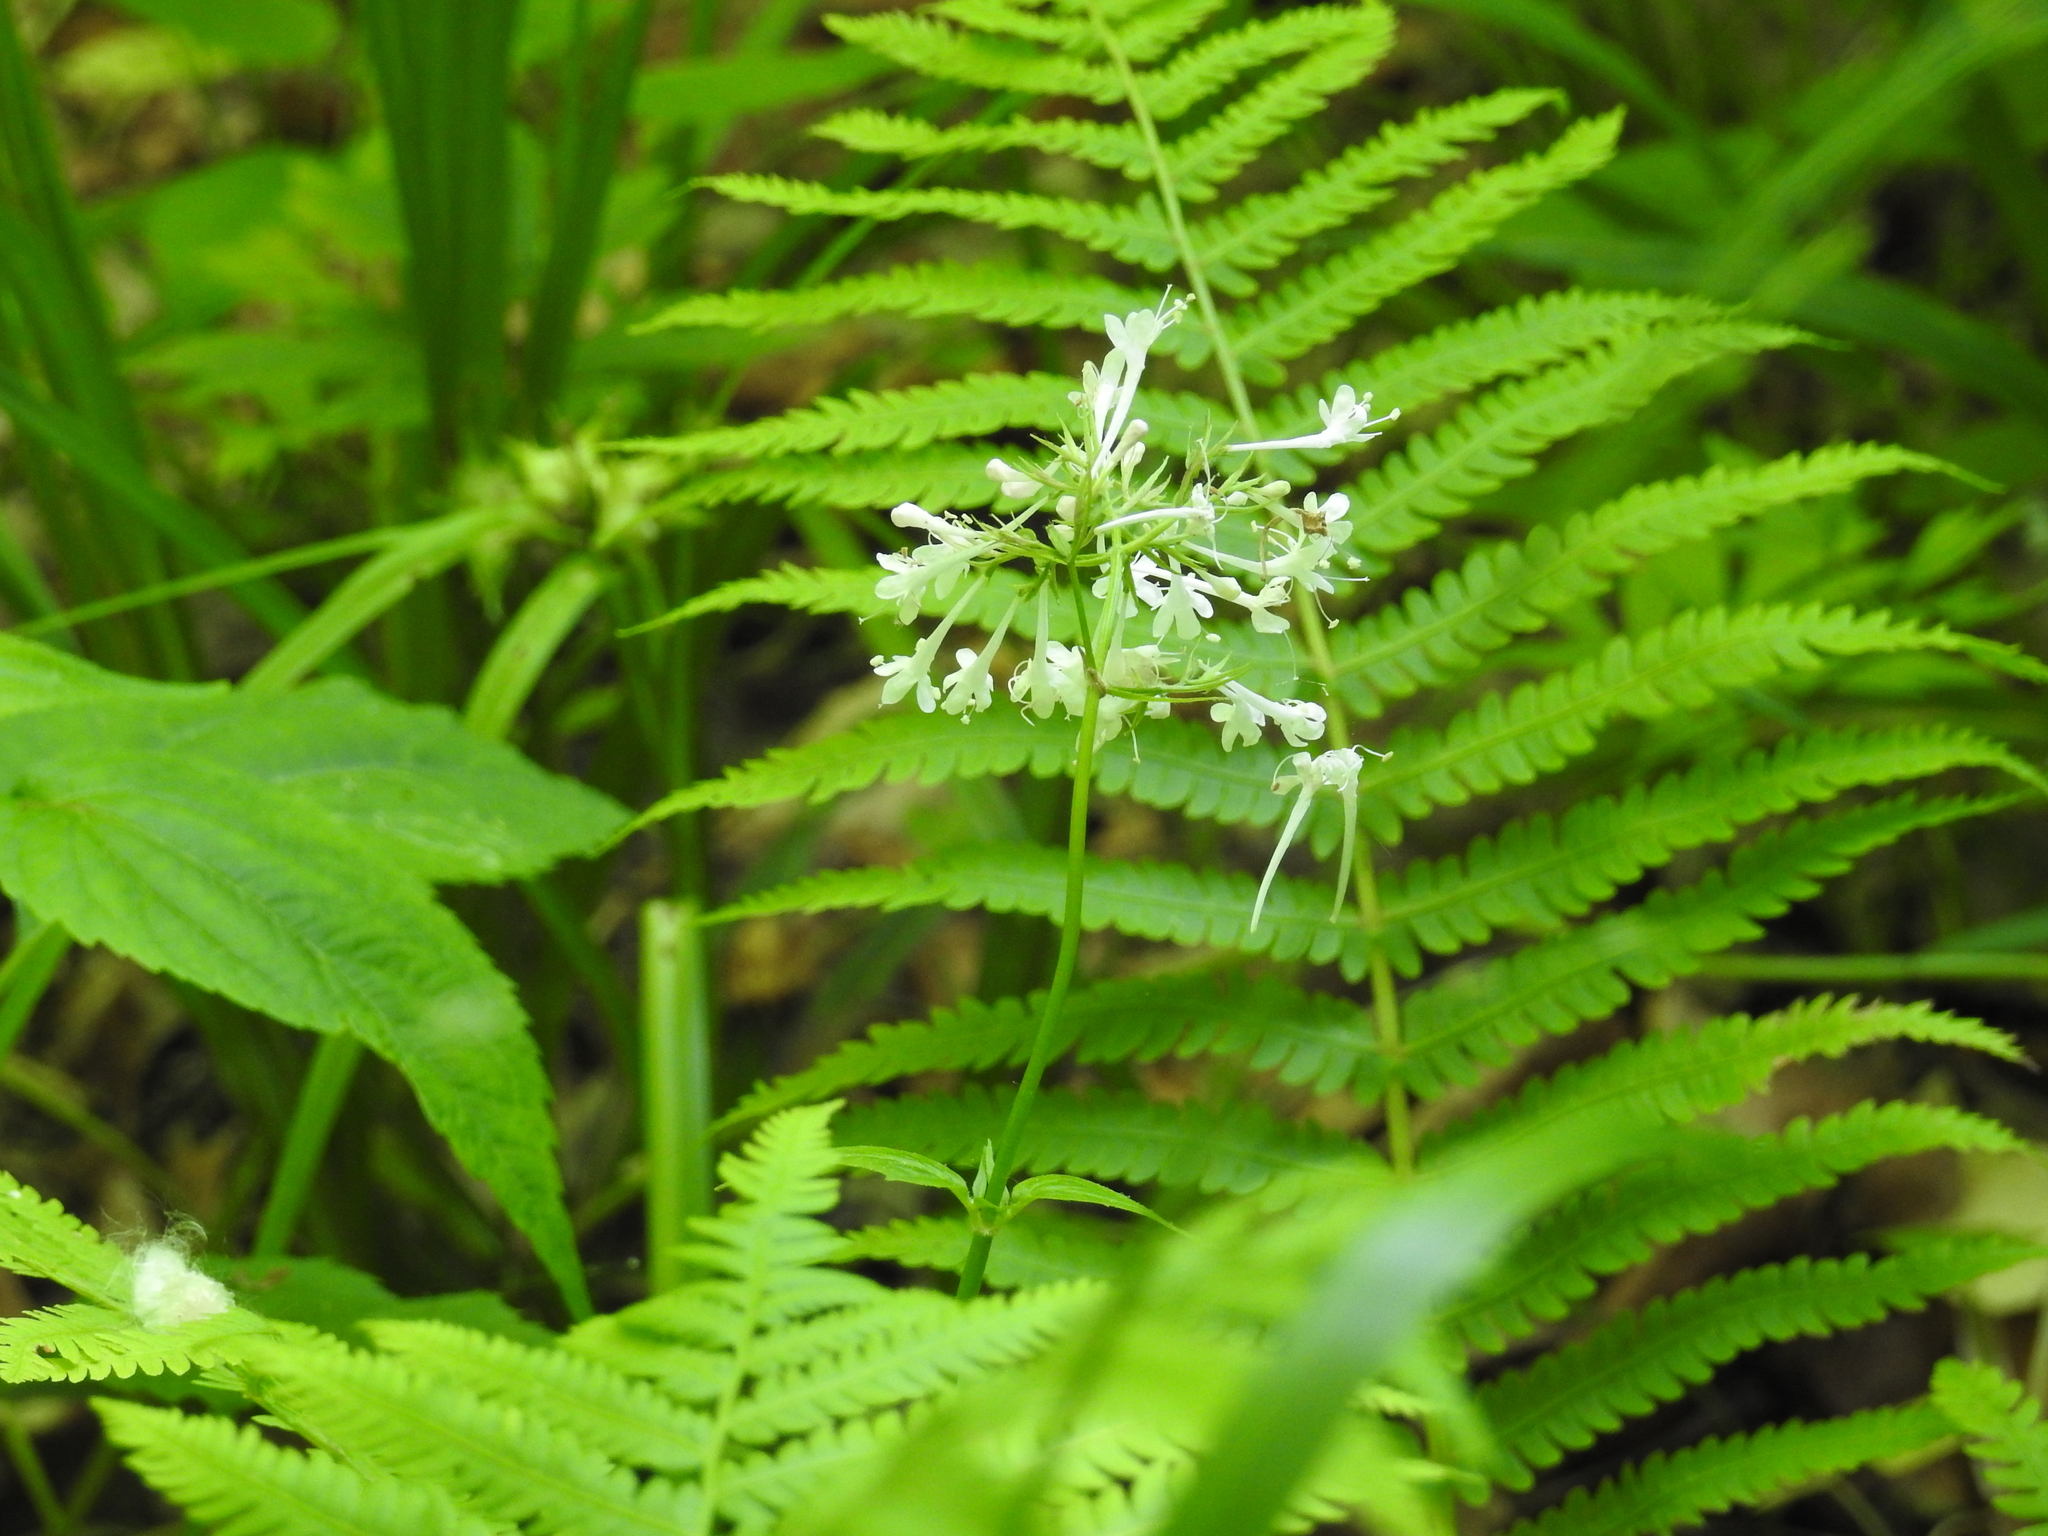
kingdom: Plantae
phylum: Tracheophyta
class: Magnoliopsida
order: Dipsacales
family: Caprifoliaceae
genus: Valeriana
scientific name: Valeriana pauciflora
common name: Long-tube valeriana
